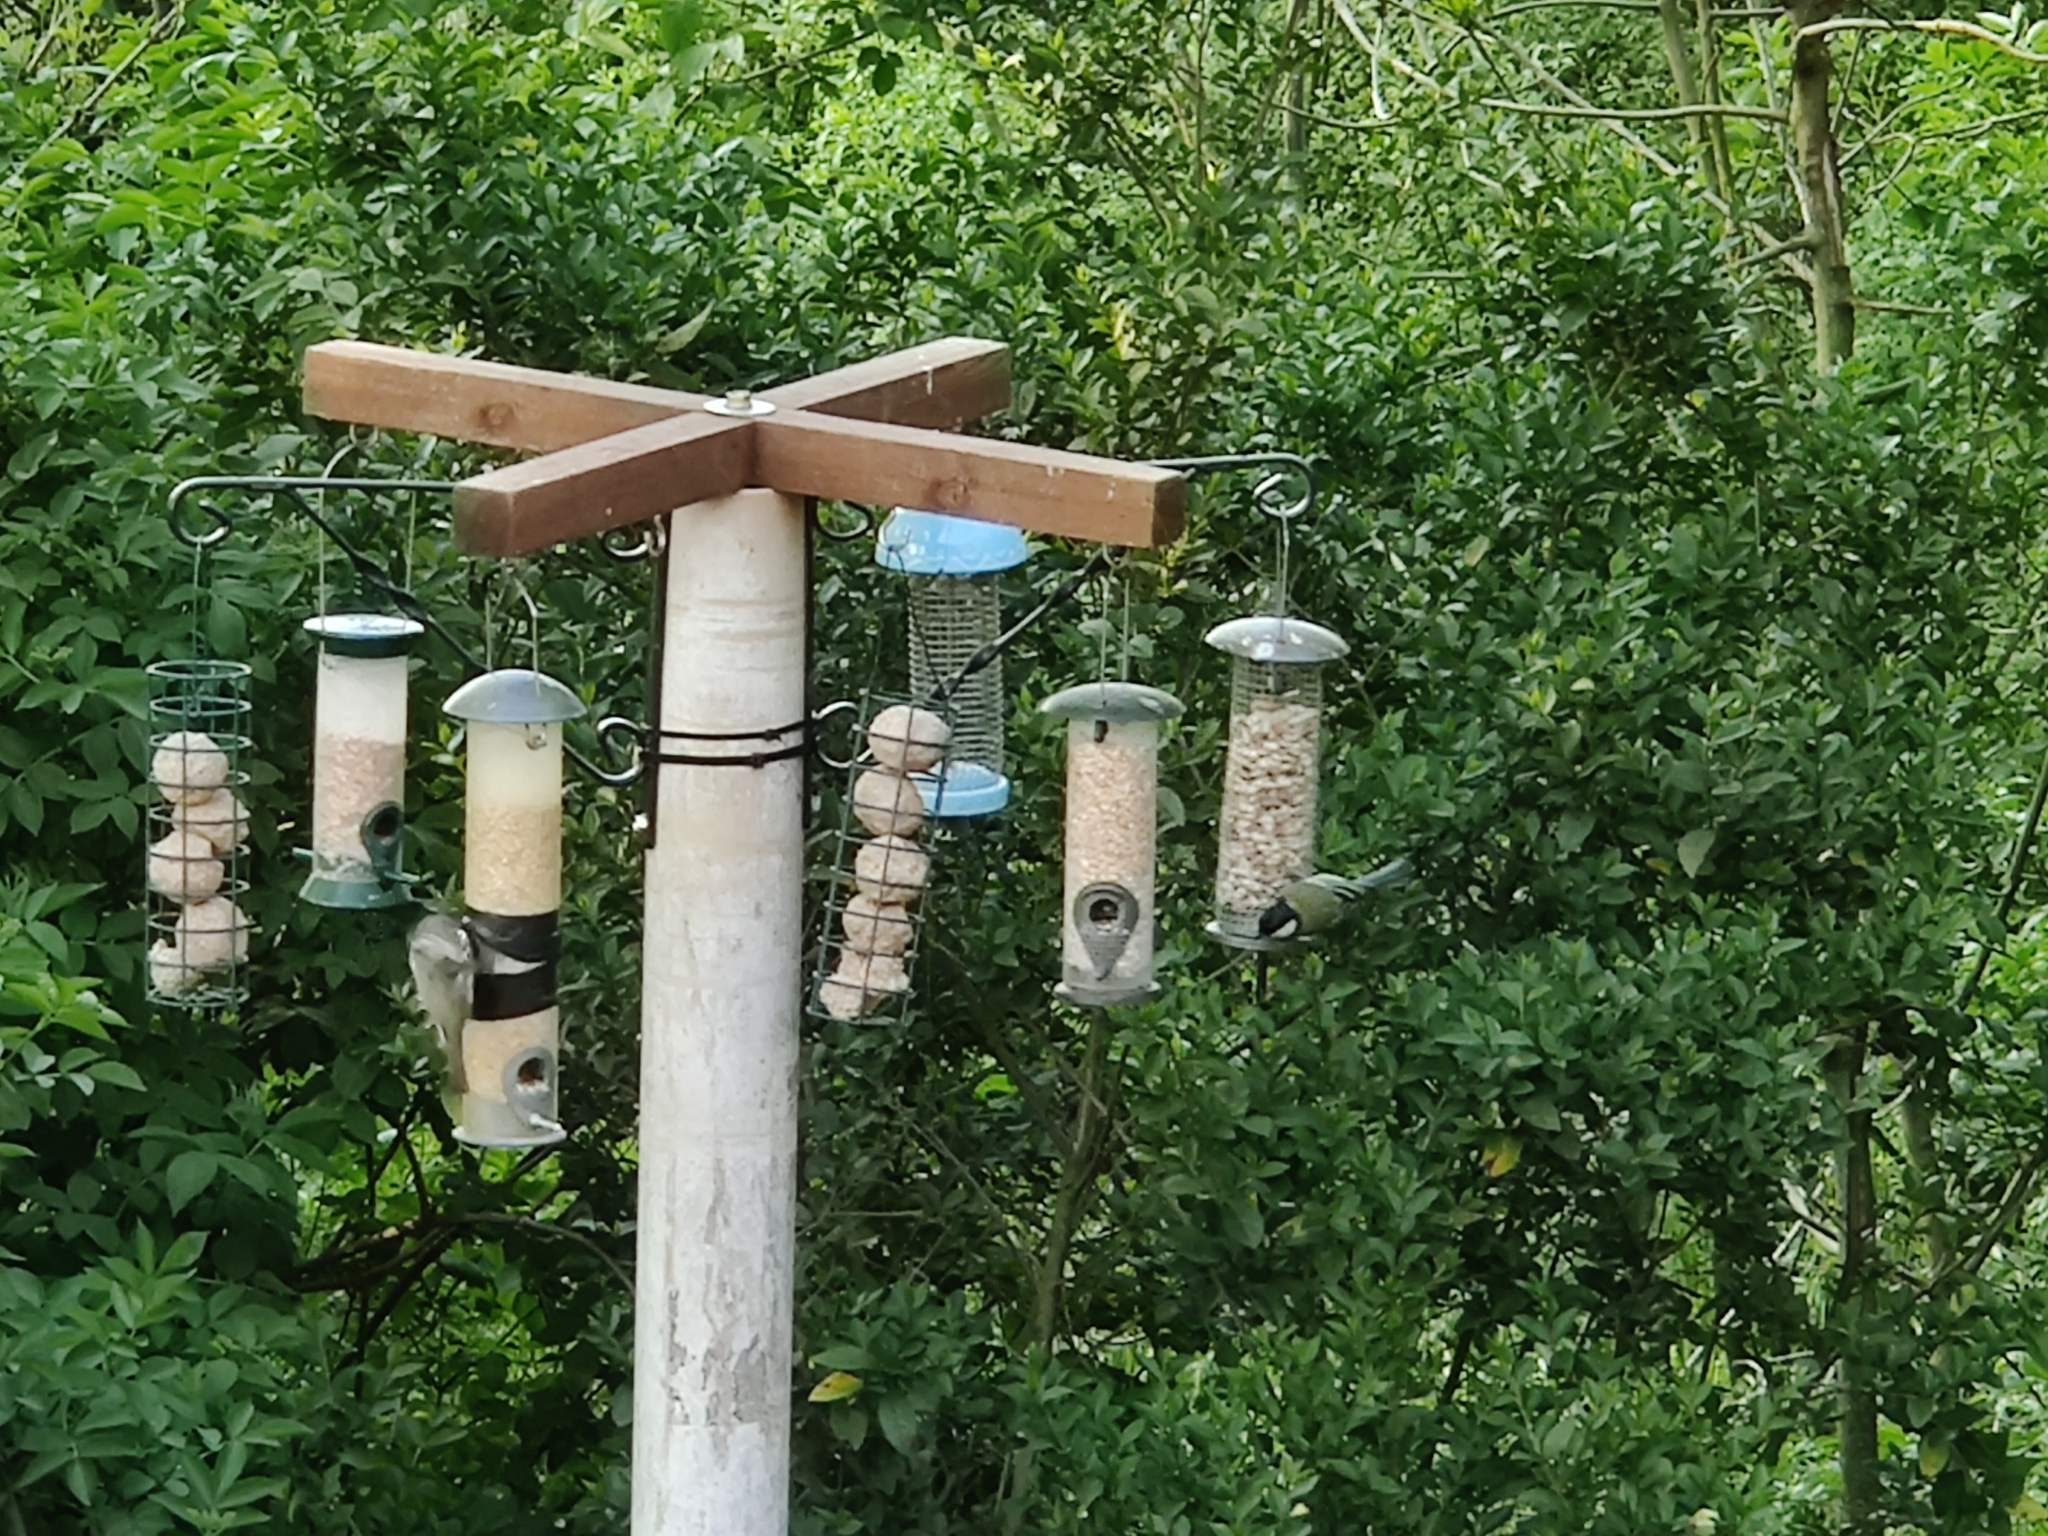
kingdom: Animalia
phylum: Chordata
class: Aves
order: Passeriformes
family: Paridae
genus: Parus
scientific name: Parus major
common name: Great tit
